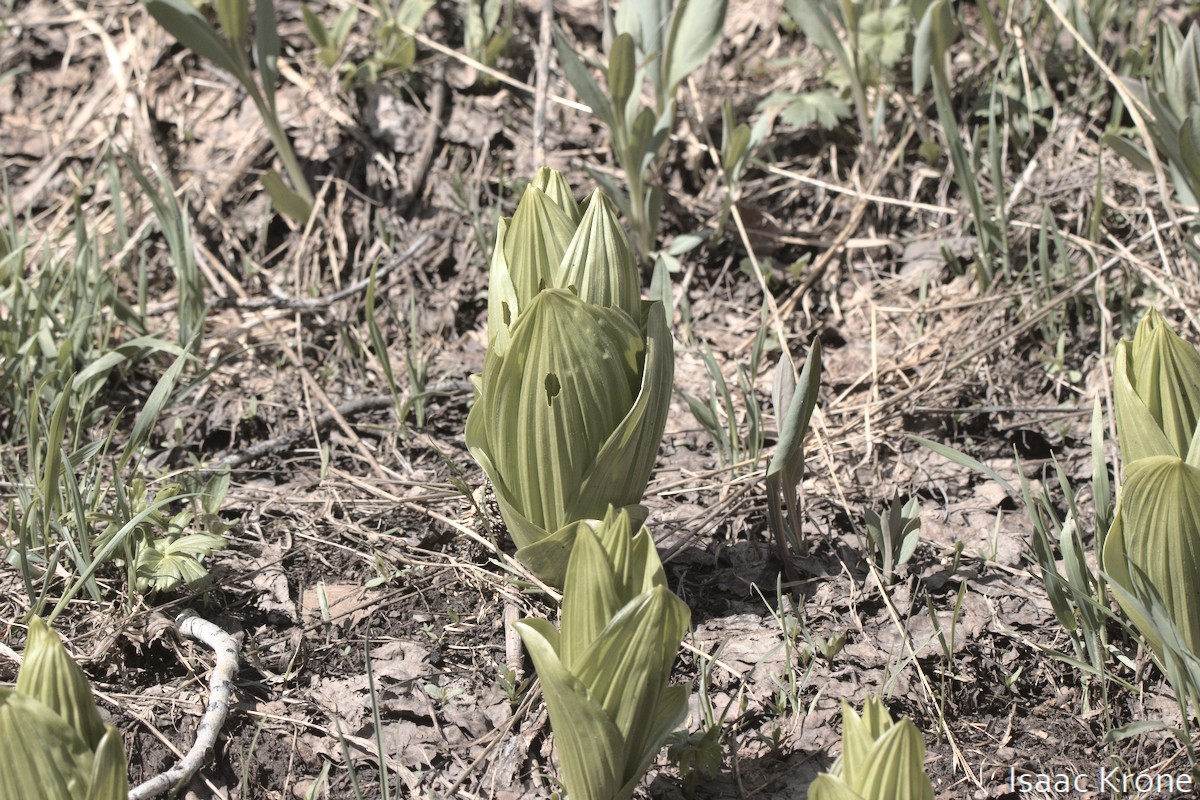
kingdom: Plantae
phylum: Tracheophyta
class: Liliopsida
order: Liliales
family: Melanthiaceae
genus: Veratrum
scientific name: Veratrum californicum
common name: California veratrum
